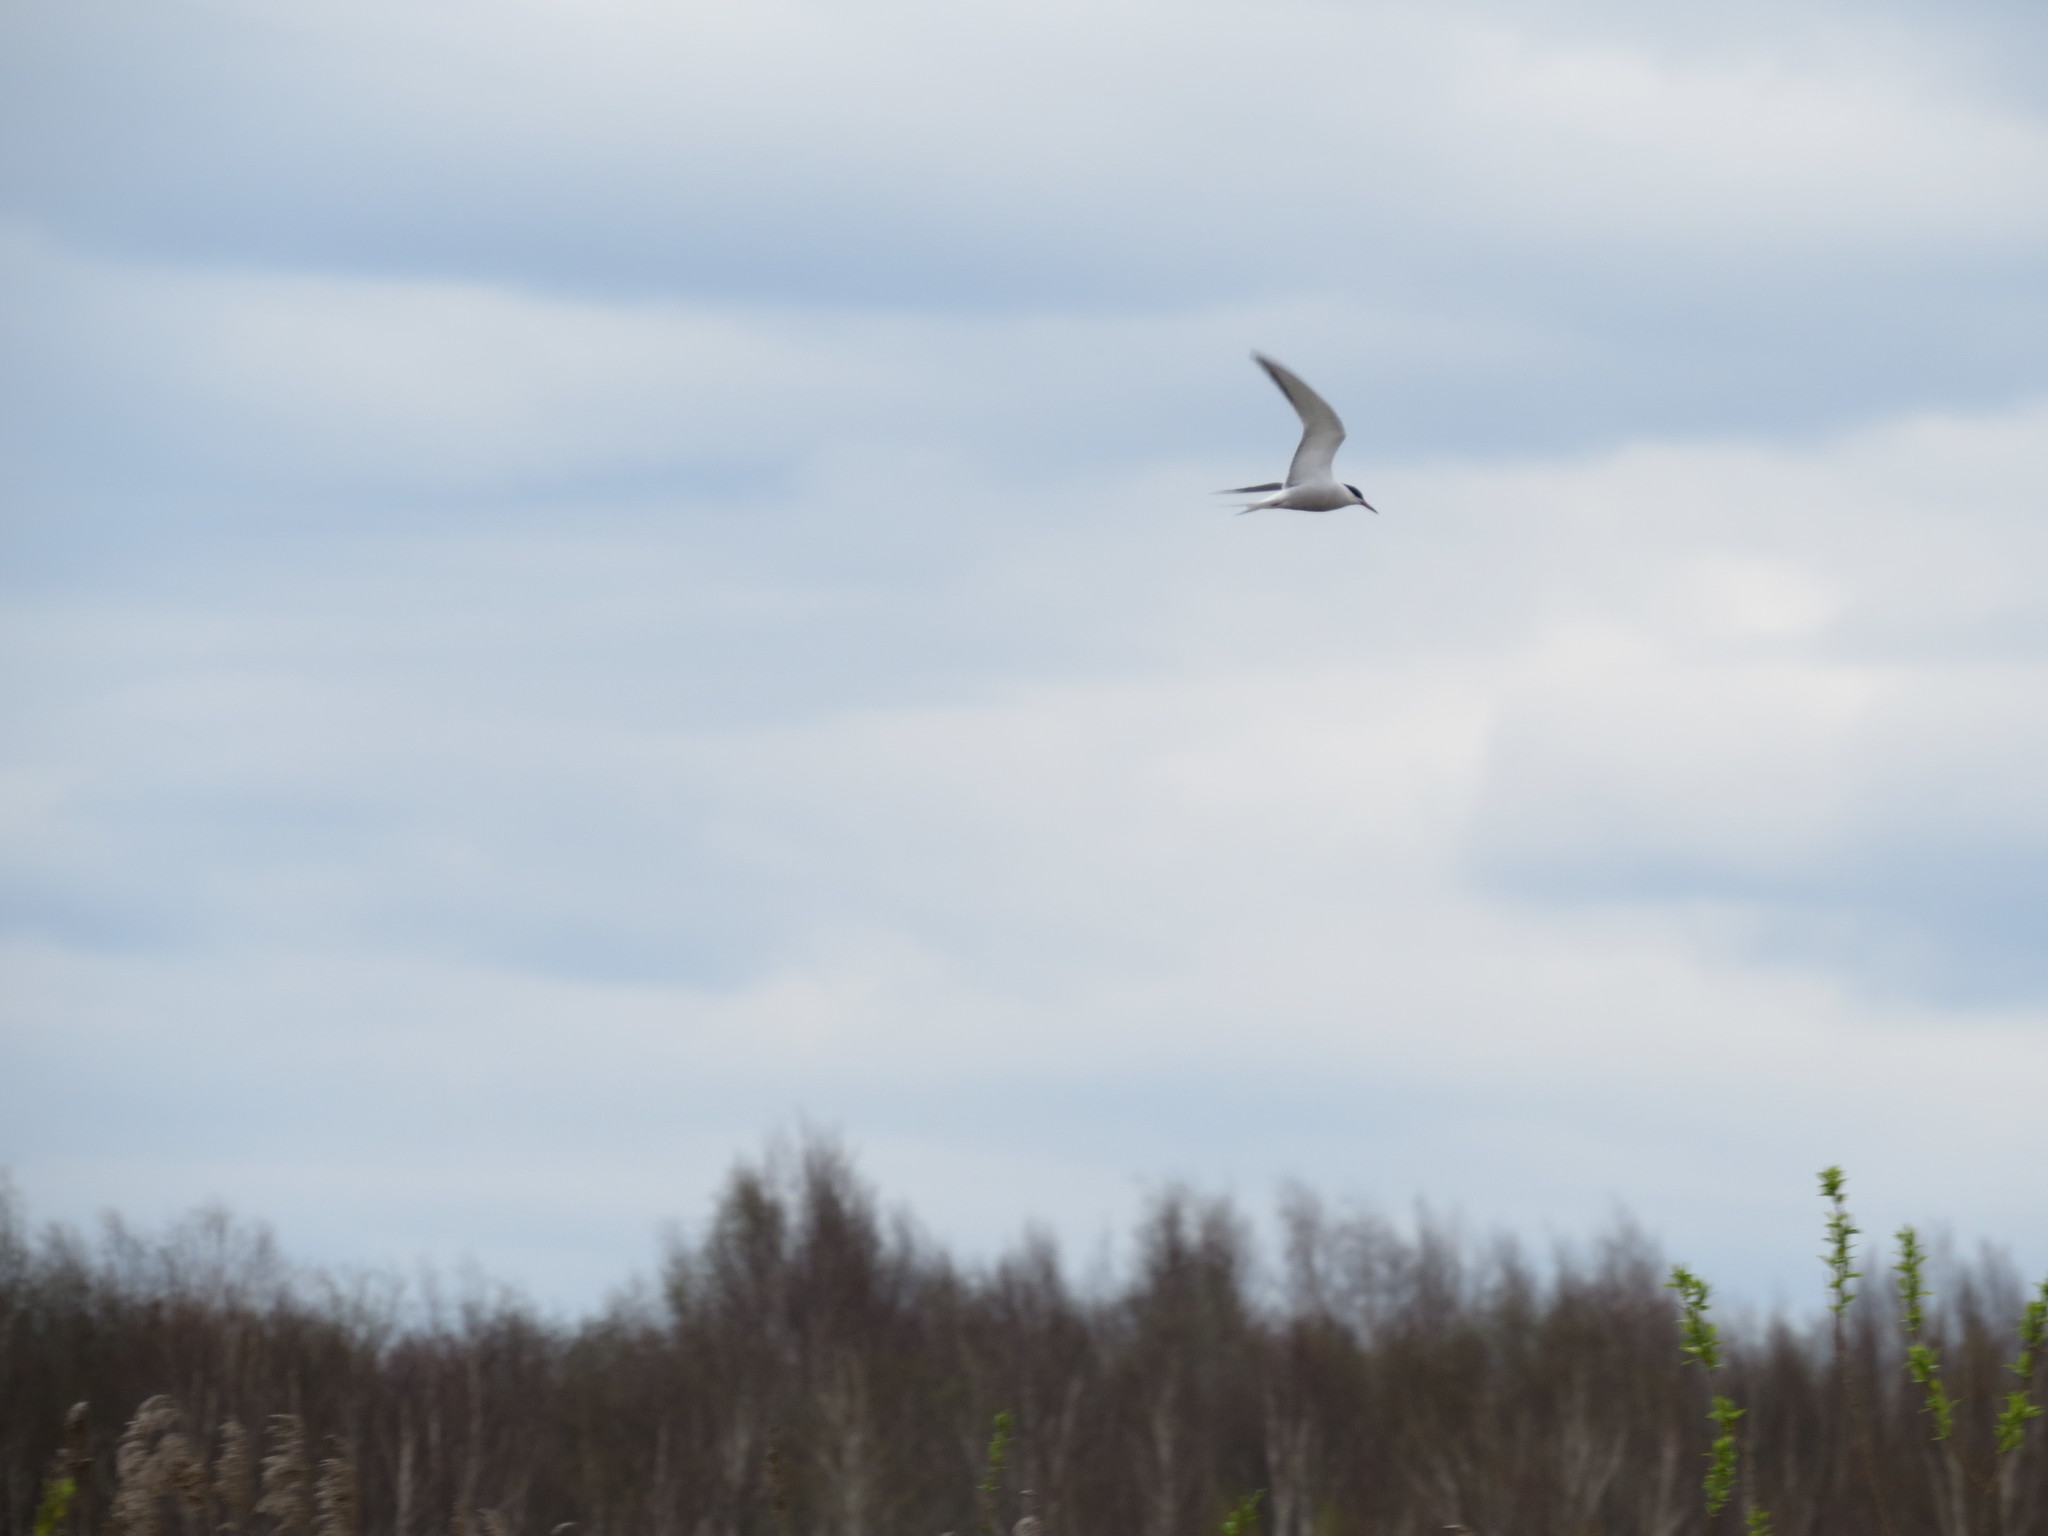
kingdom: Animalia
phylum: Chordata
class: Aves
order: Charadriiformes
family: Laridae
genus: Sterna
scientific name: Sterna hirundo
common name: Common tern
